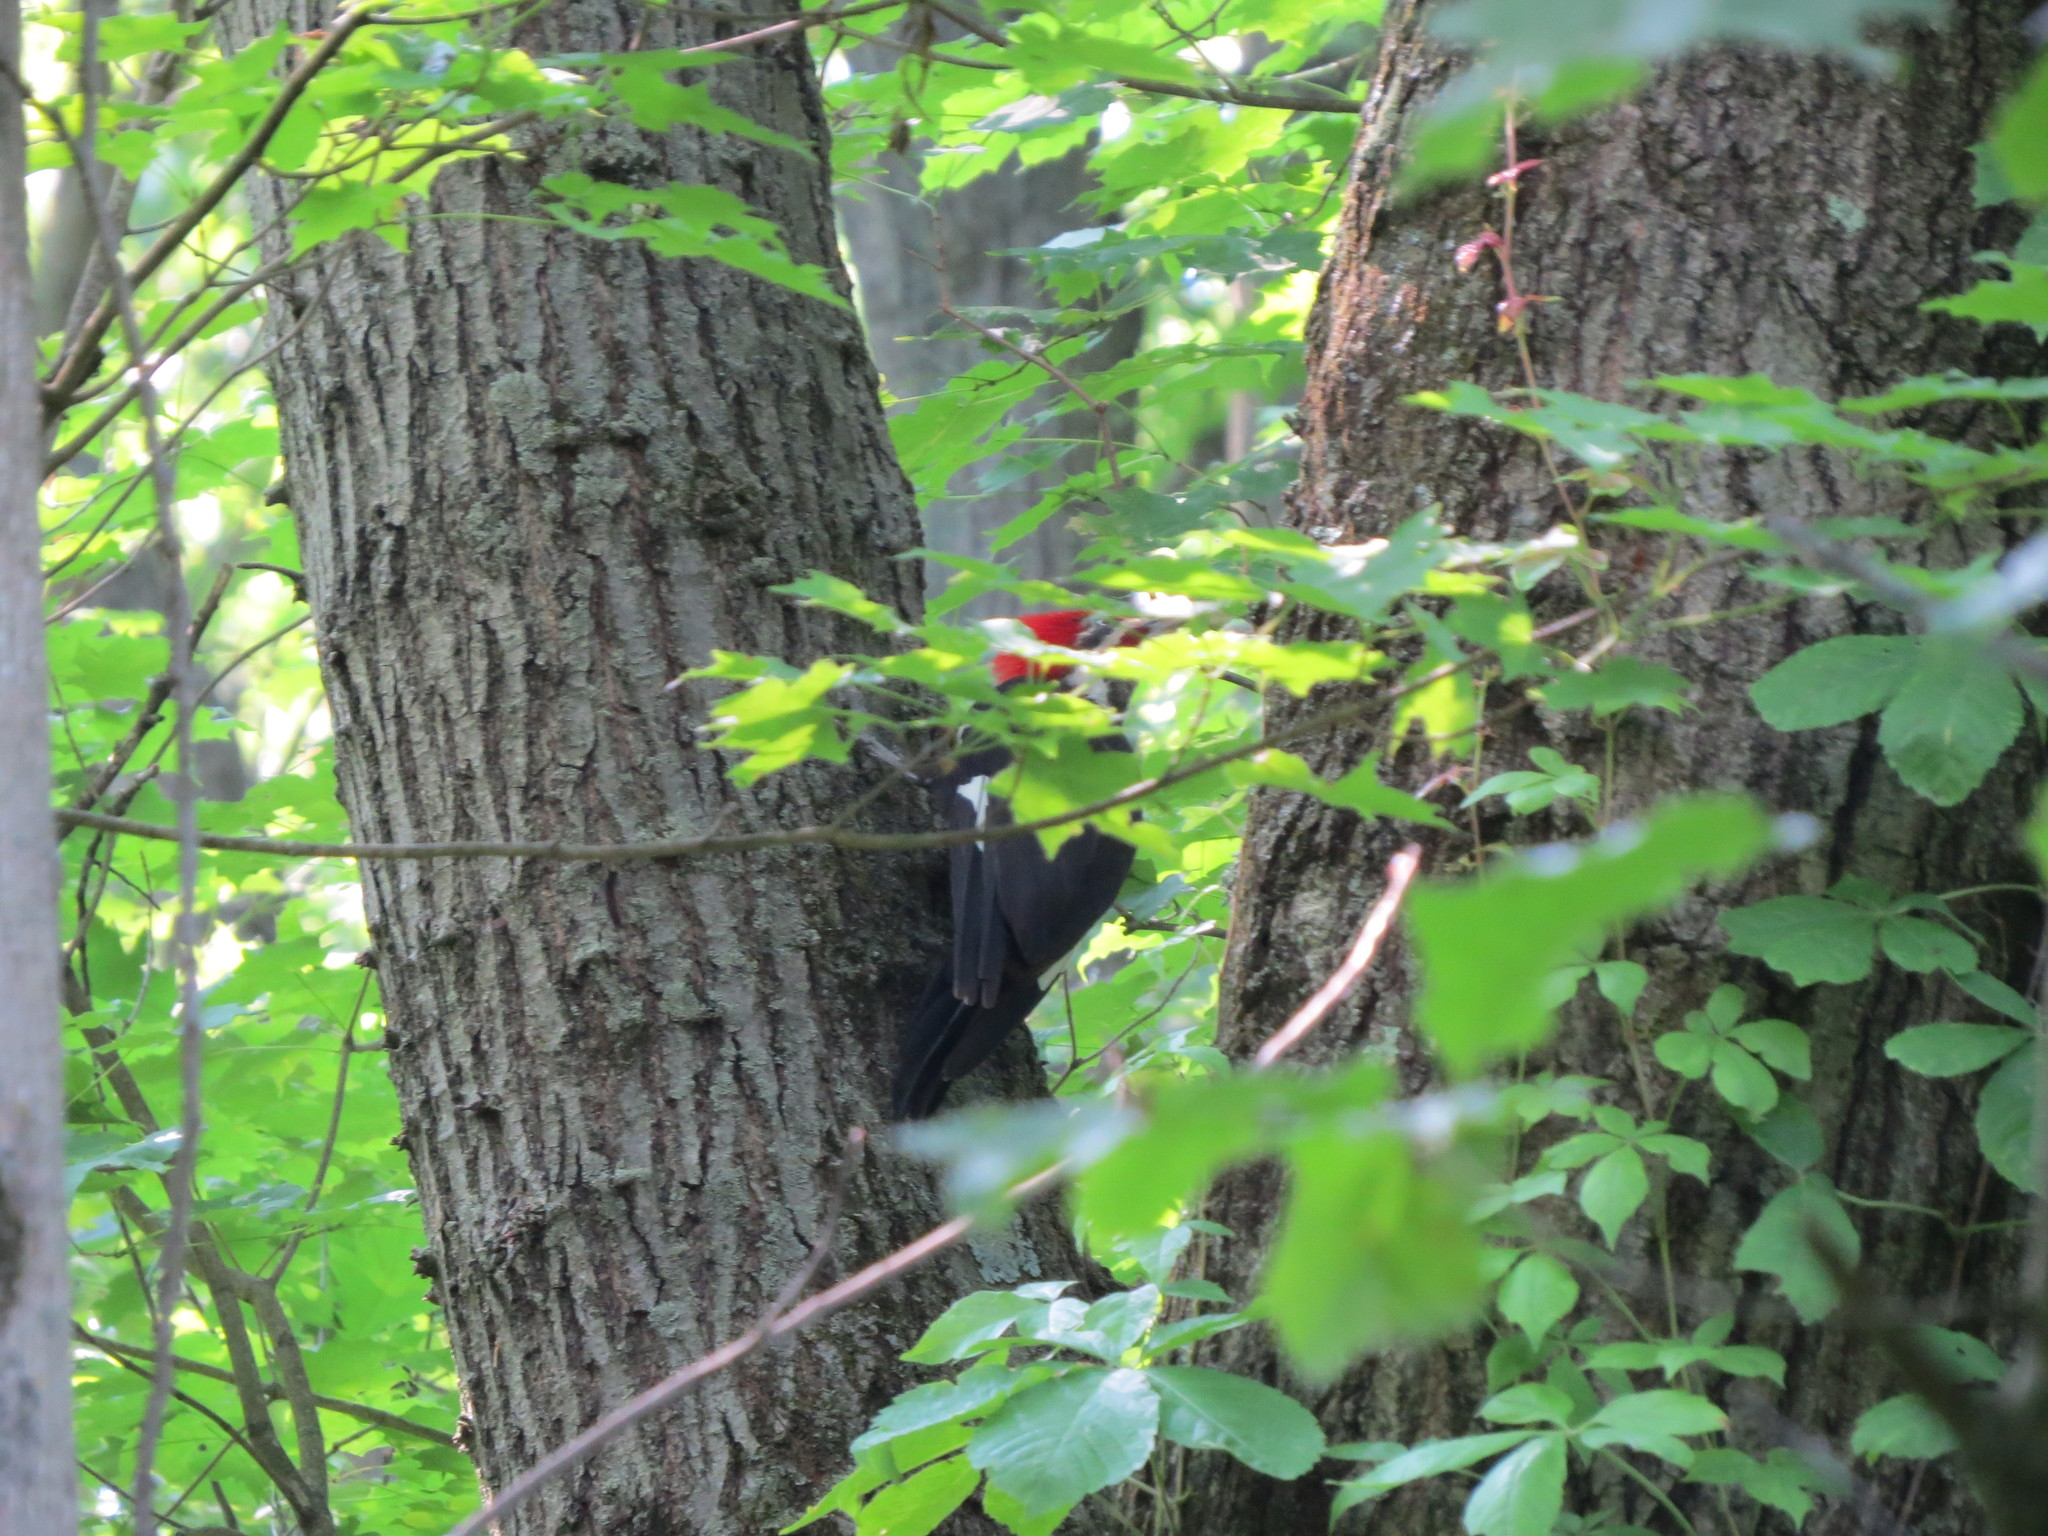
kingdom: Animalia
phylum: Chordata
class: Aves
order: Piciformes
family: Picidae
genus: Dryocopus
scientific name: Dryocopus pileatus
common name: Pileated woodpecker
